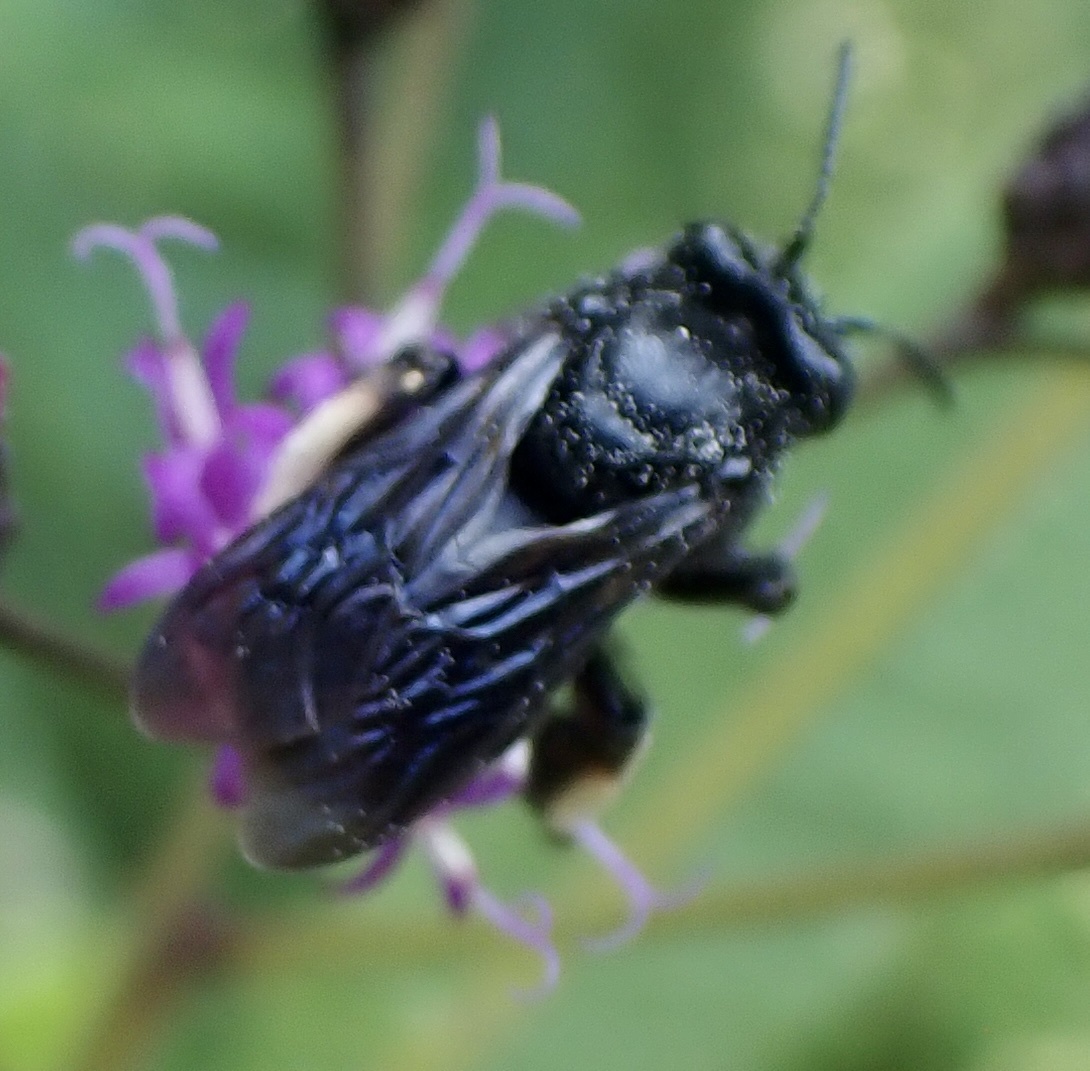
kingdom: Animalia
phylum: Arthropoda
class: Insecta
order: Hymenoptera
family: Apidae
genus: Melissodes
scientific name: Melissodes bimaculatus
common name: Two-spotted long-horned bee
